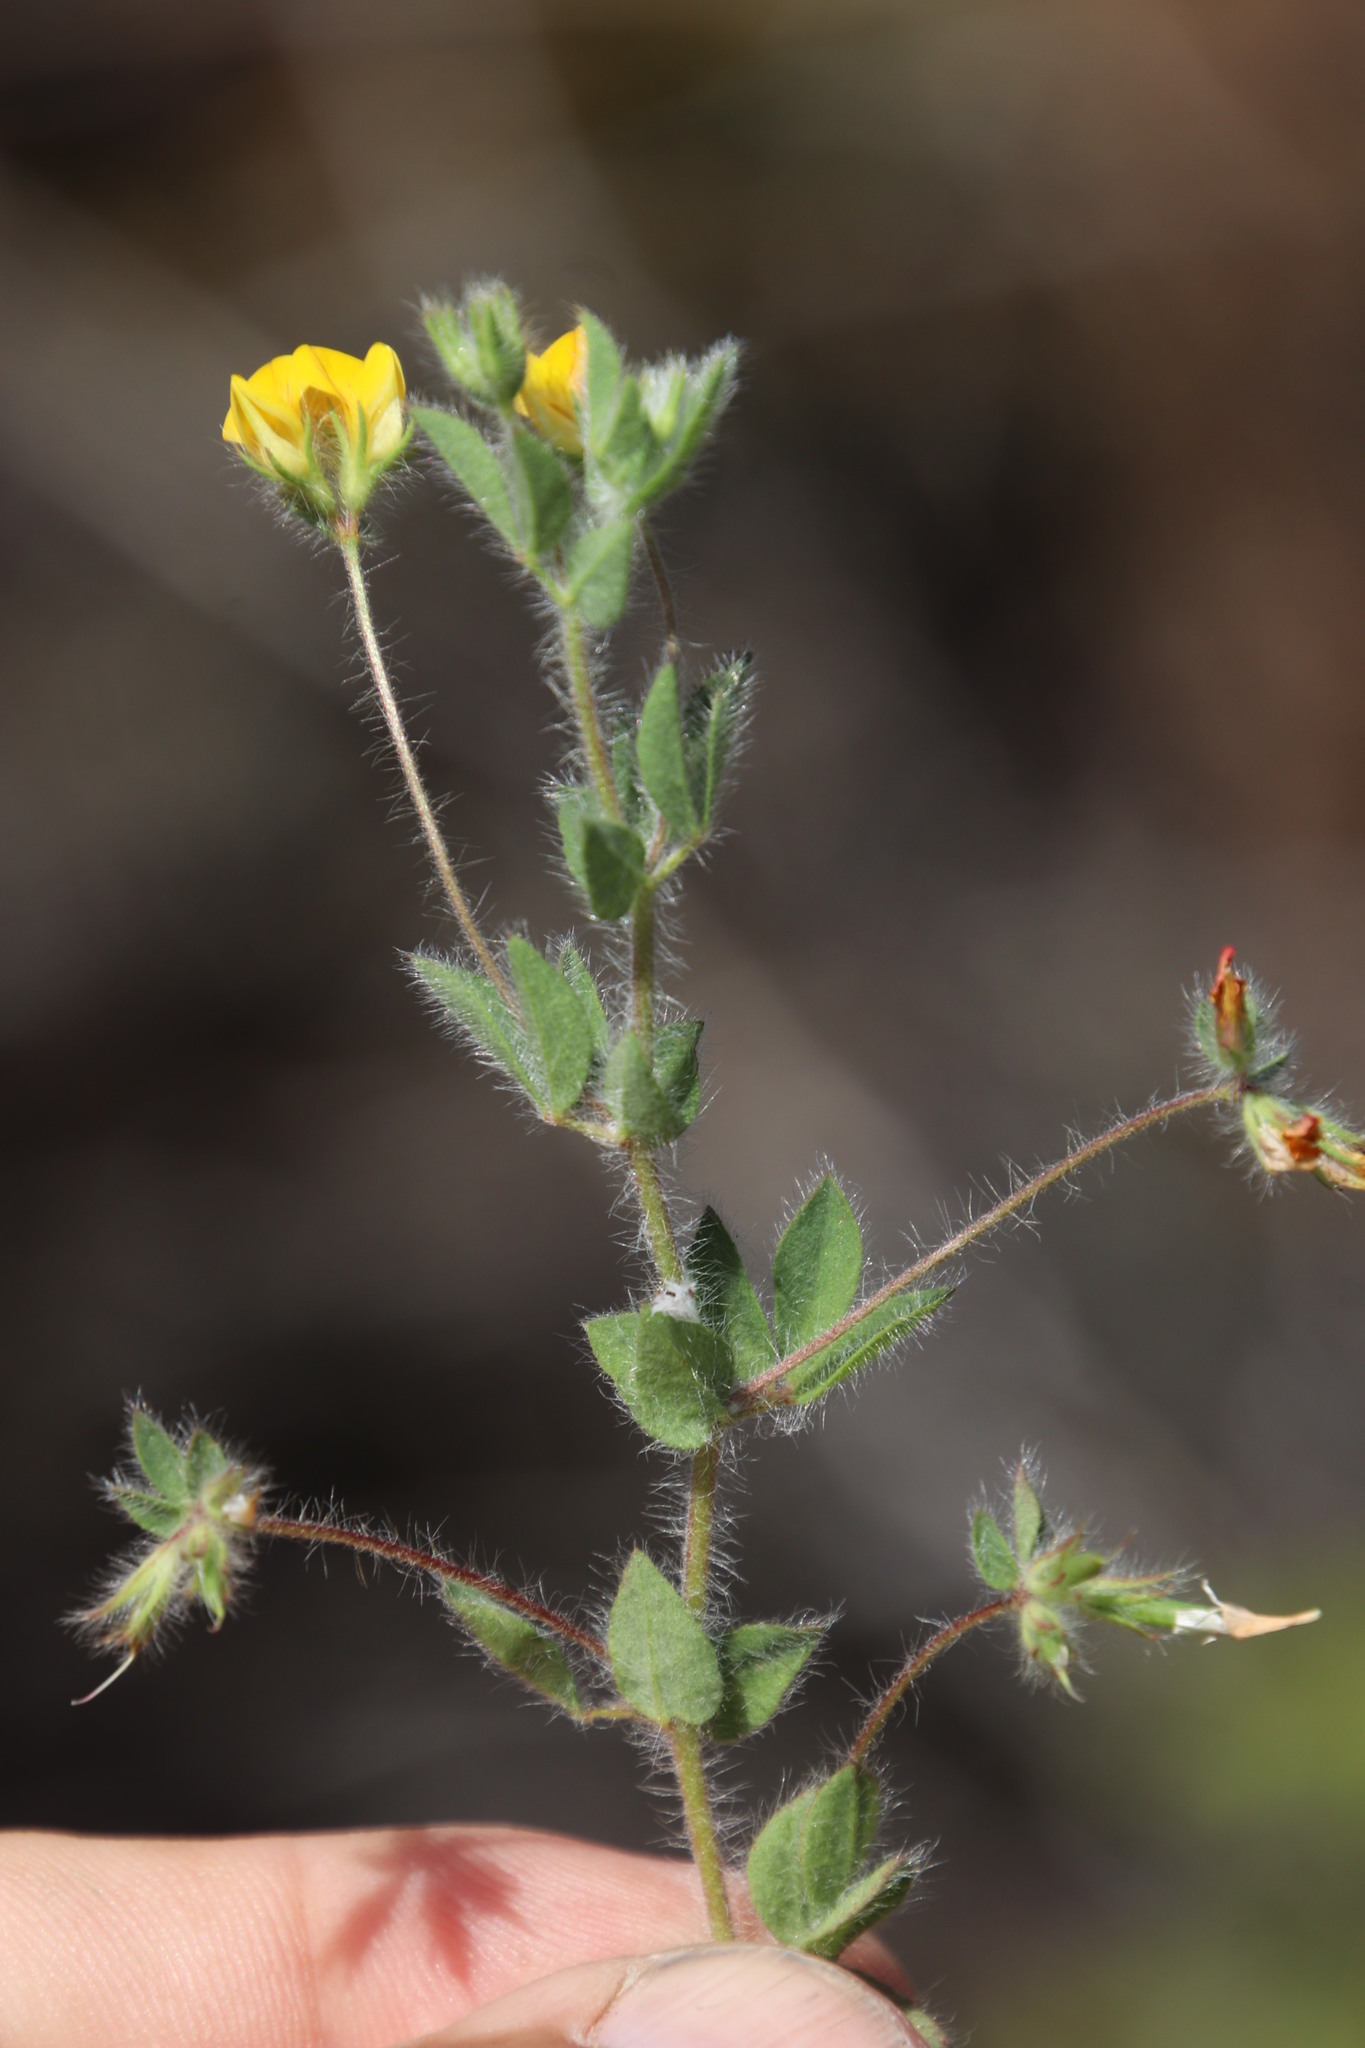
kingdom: Plantae
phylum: Tracheophyta
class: Magnoliopsida
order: Fabales
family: Fabaceae
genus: Lotus
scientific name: Lotus subbiflorus
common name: Hairy bird's-foot trefoil
